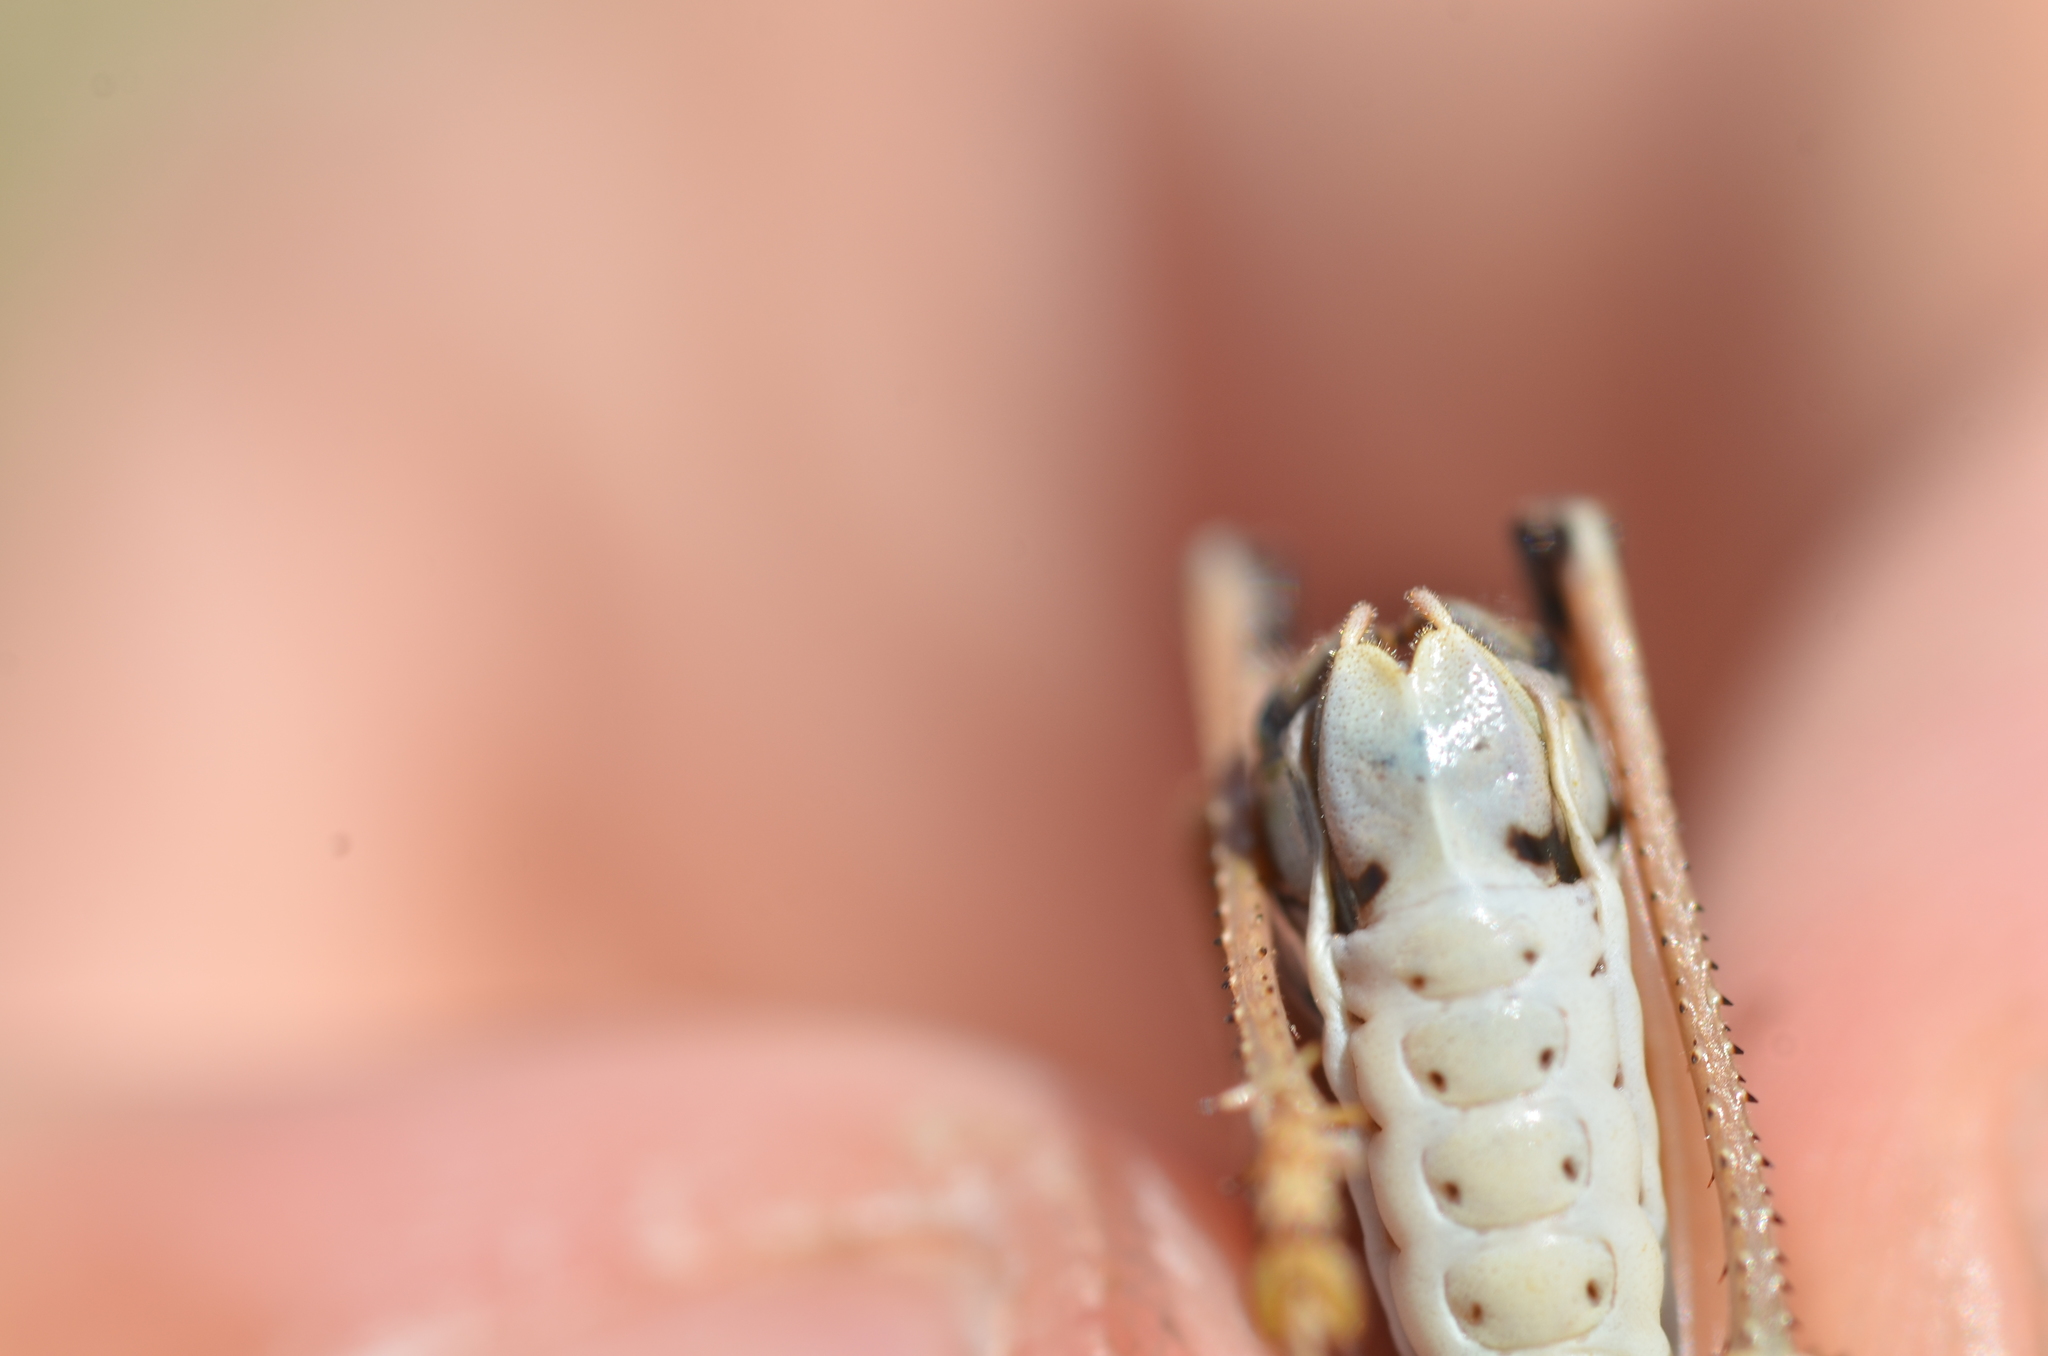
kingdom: Animalia
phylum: Arthropoda
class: Insecta
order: Orthoptera
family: Tettigoniidae
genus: Anonconotus
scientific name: Anonconotus ghilianii
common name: Ghiliani's alpine bush-cricket
